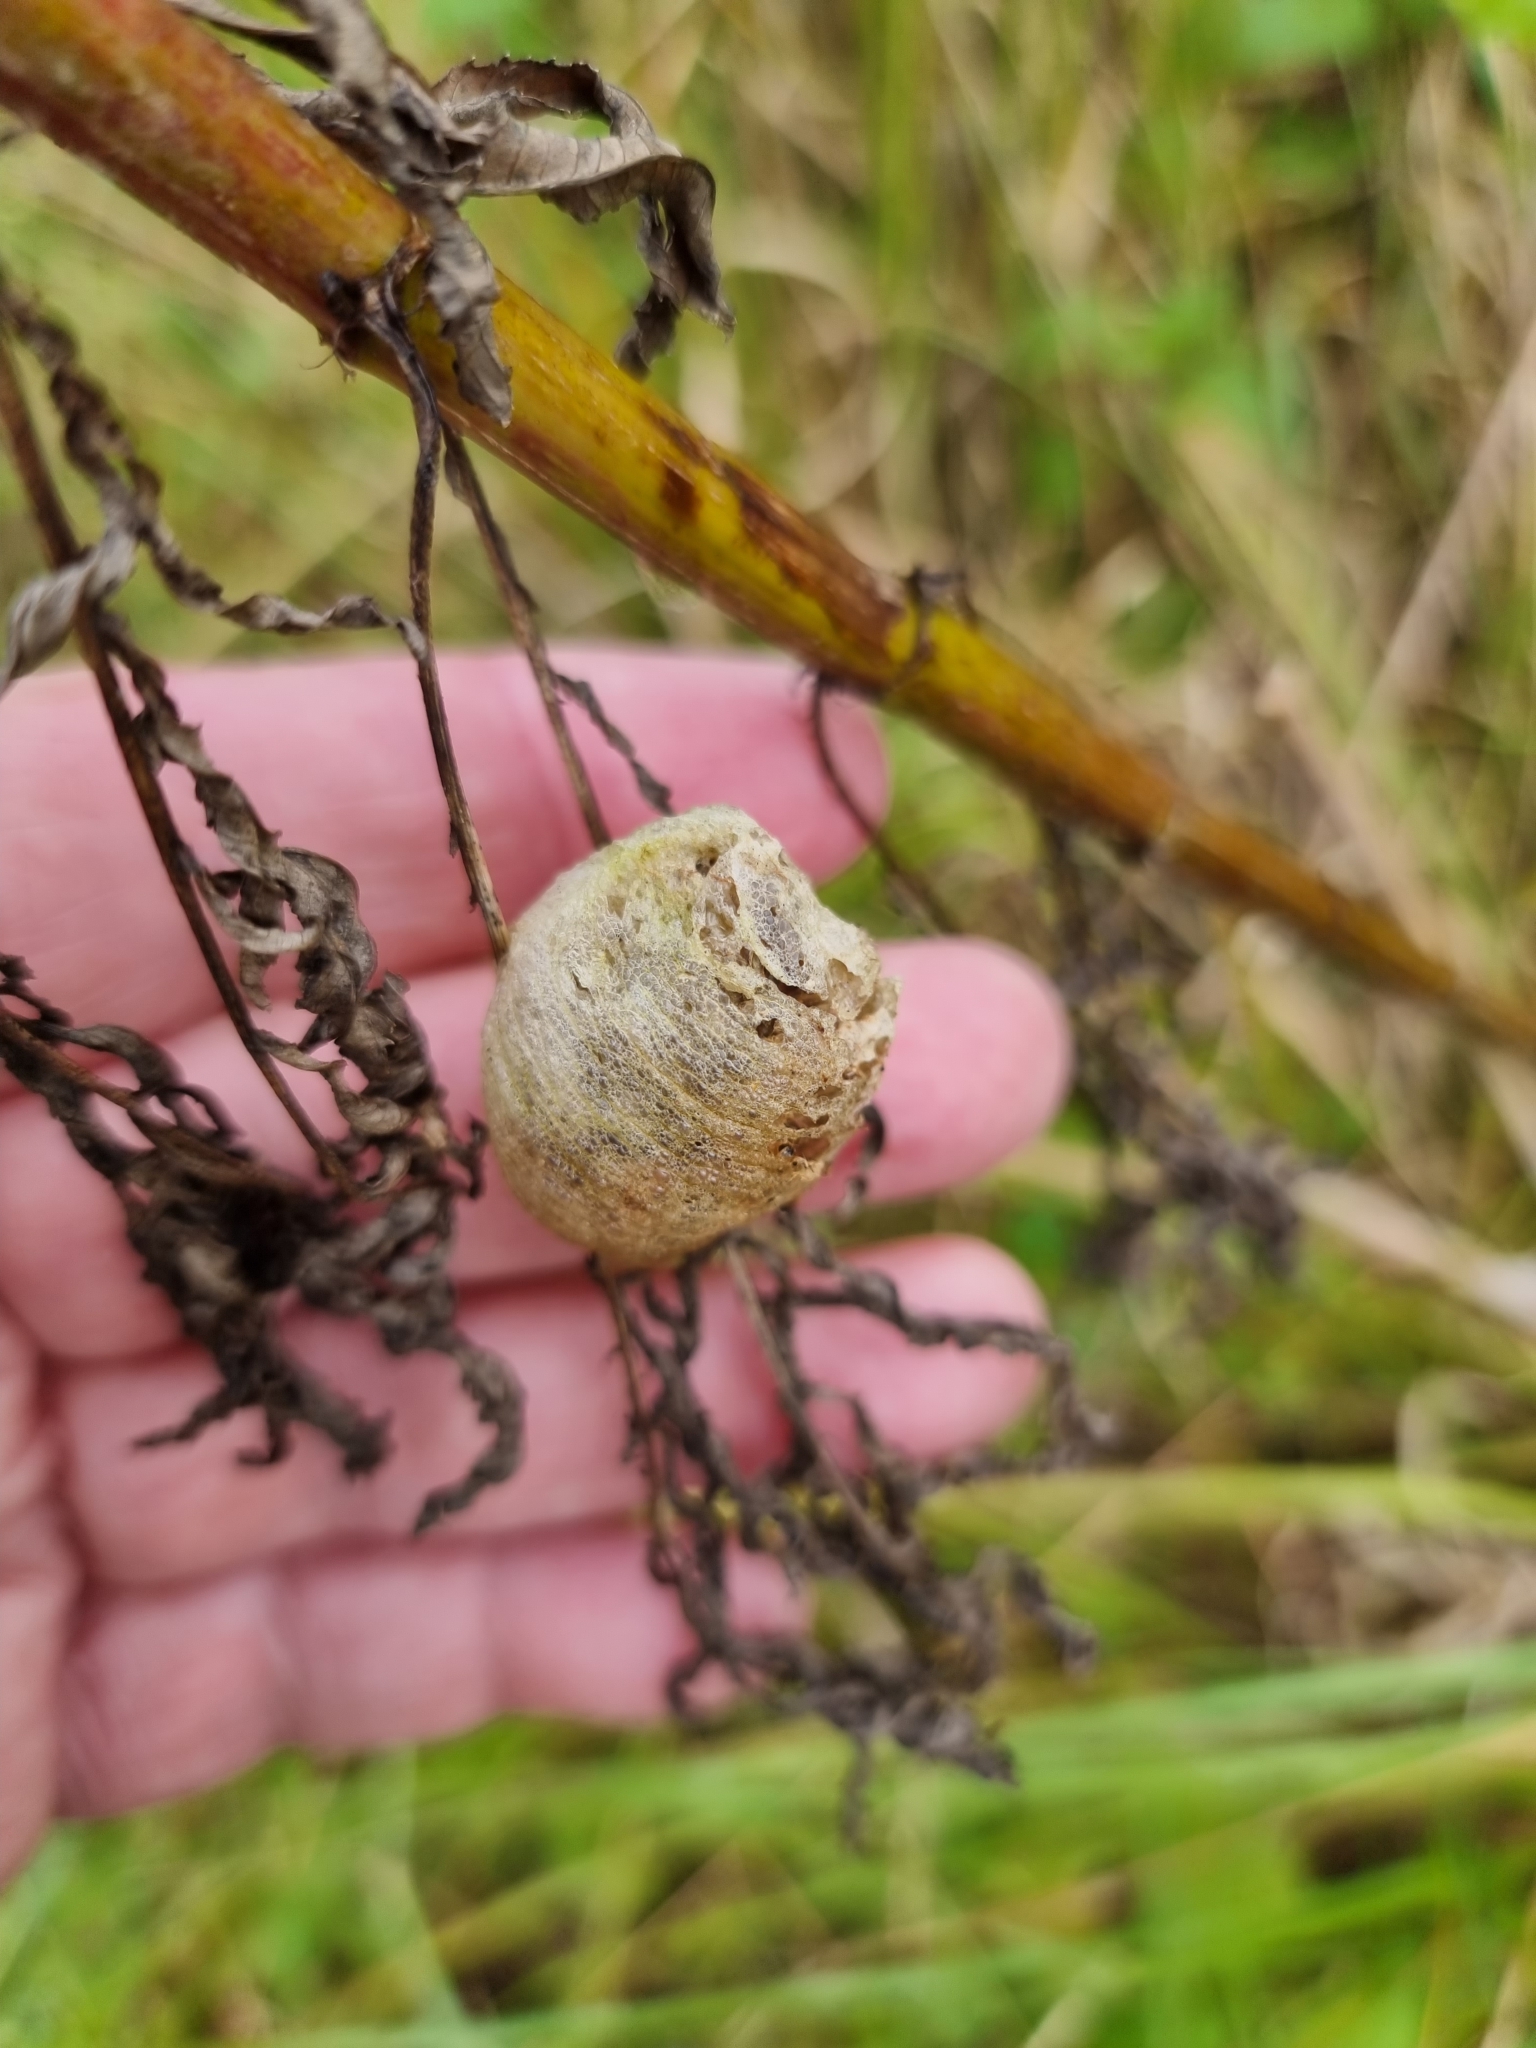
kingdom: Animalia
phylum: Arthropoda
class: Insecta
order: Mantodea
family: Mantidae
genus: Archimantis
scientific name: Archimantis latistyla
